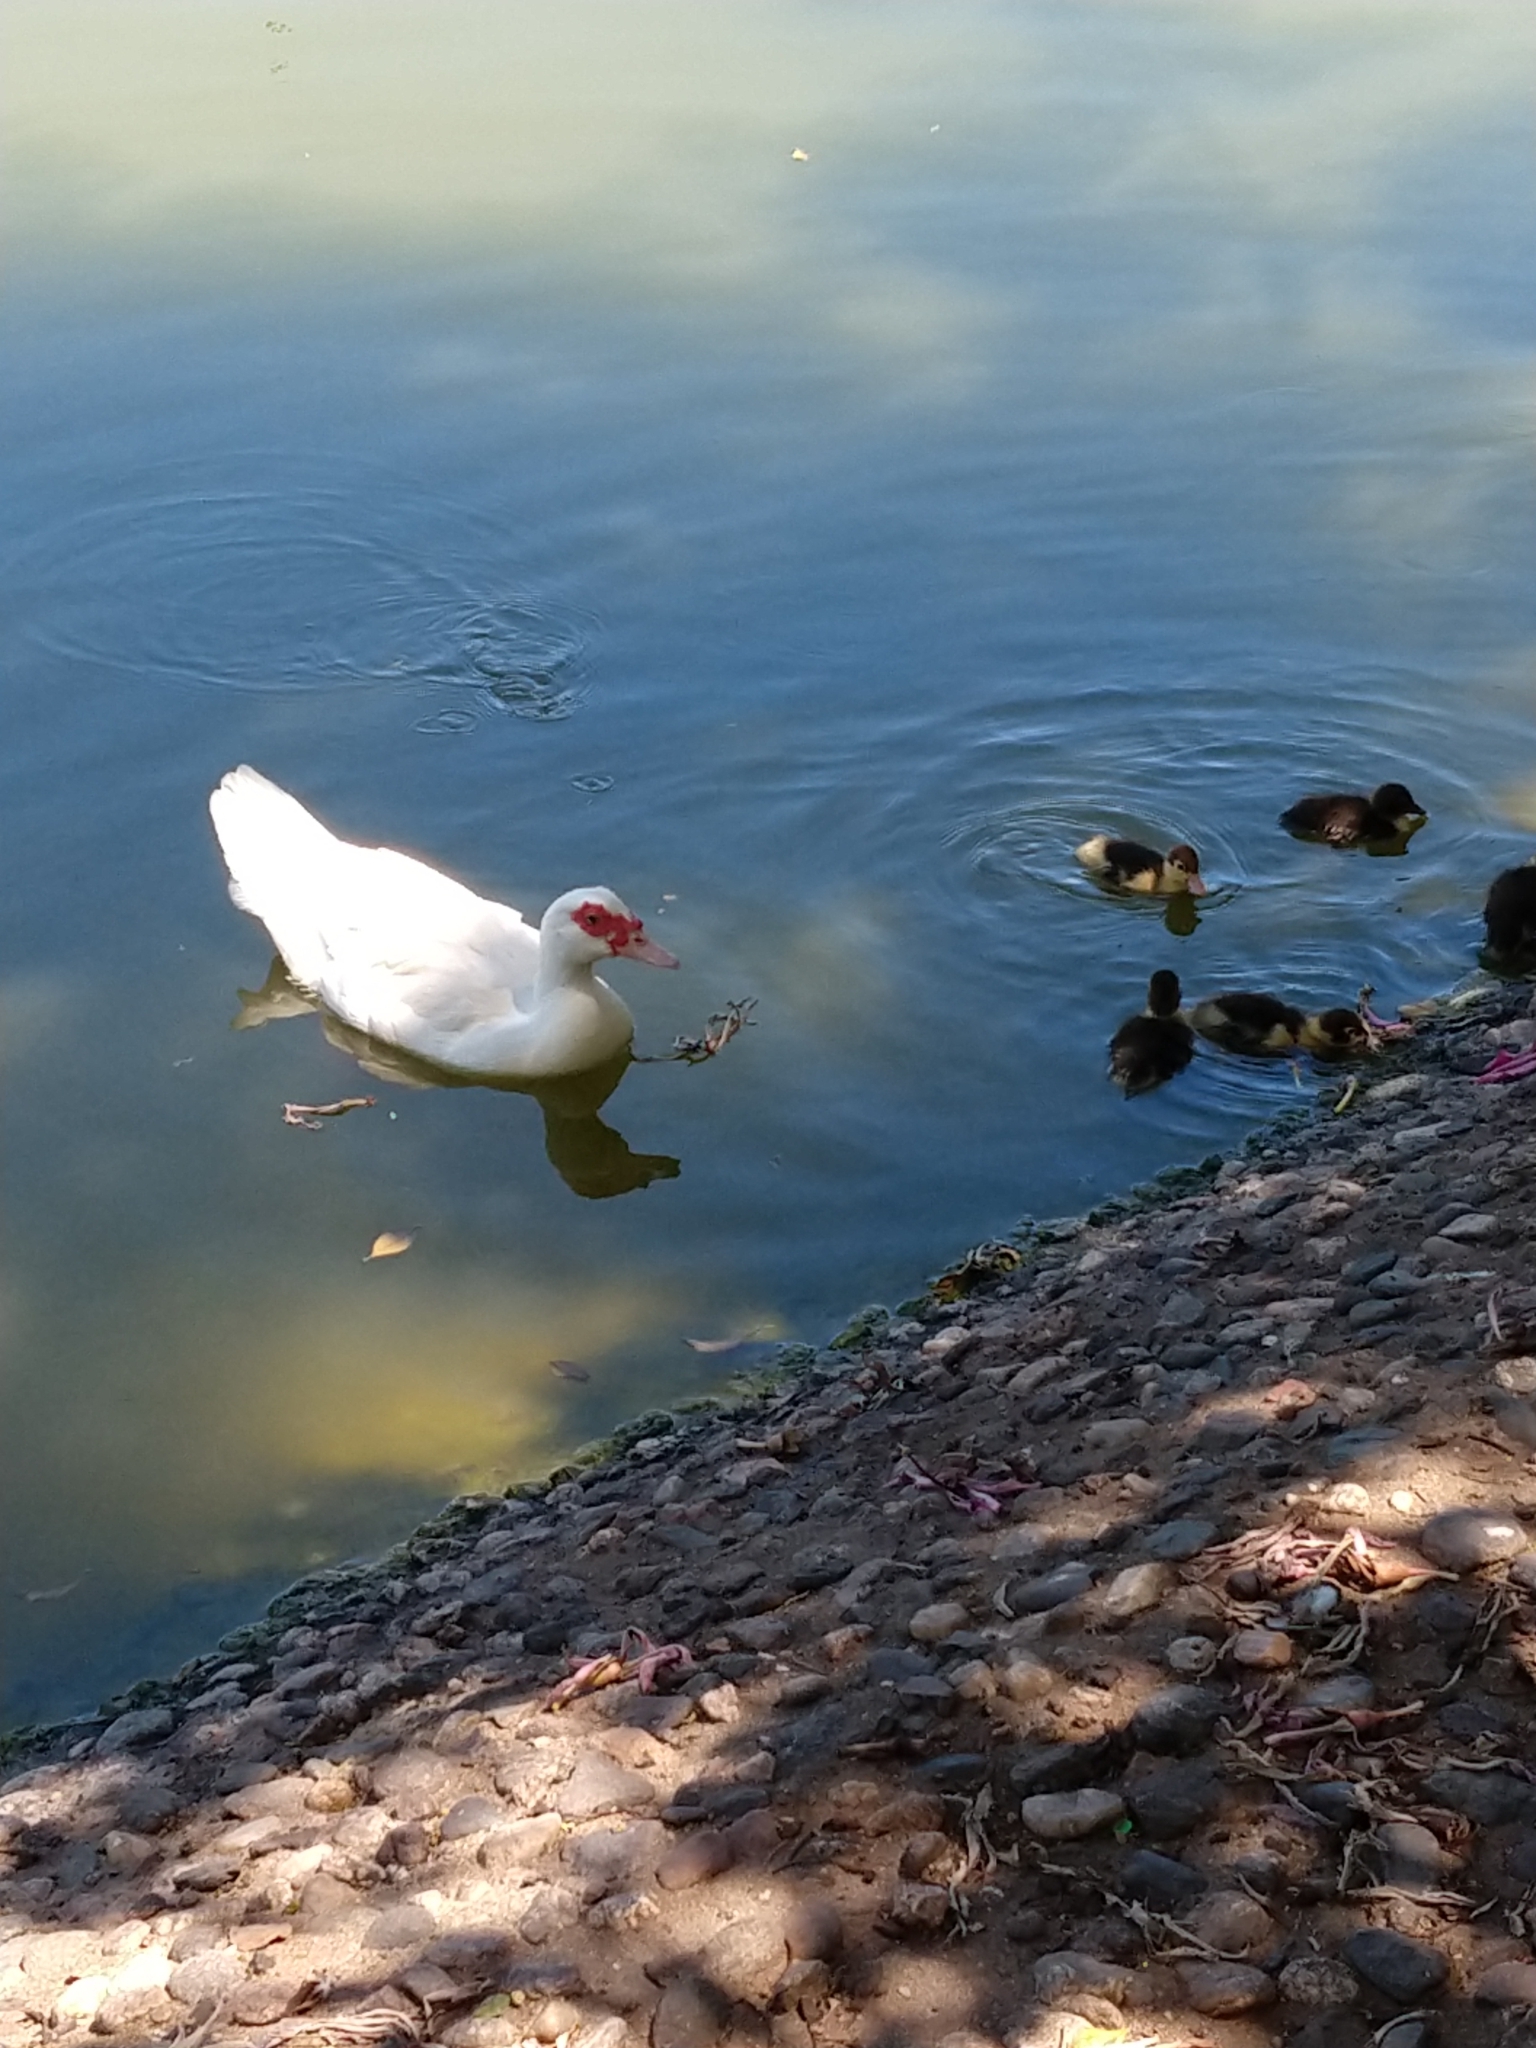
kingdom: Animalia
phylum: Chordata
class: Aves
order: Anseriformes
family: Anatidae
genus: Cairina
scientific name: Cairina moschata
